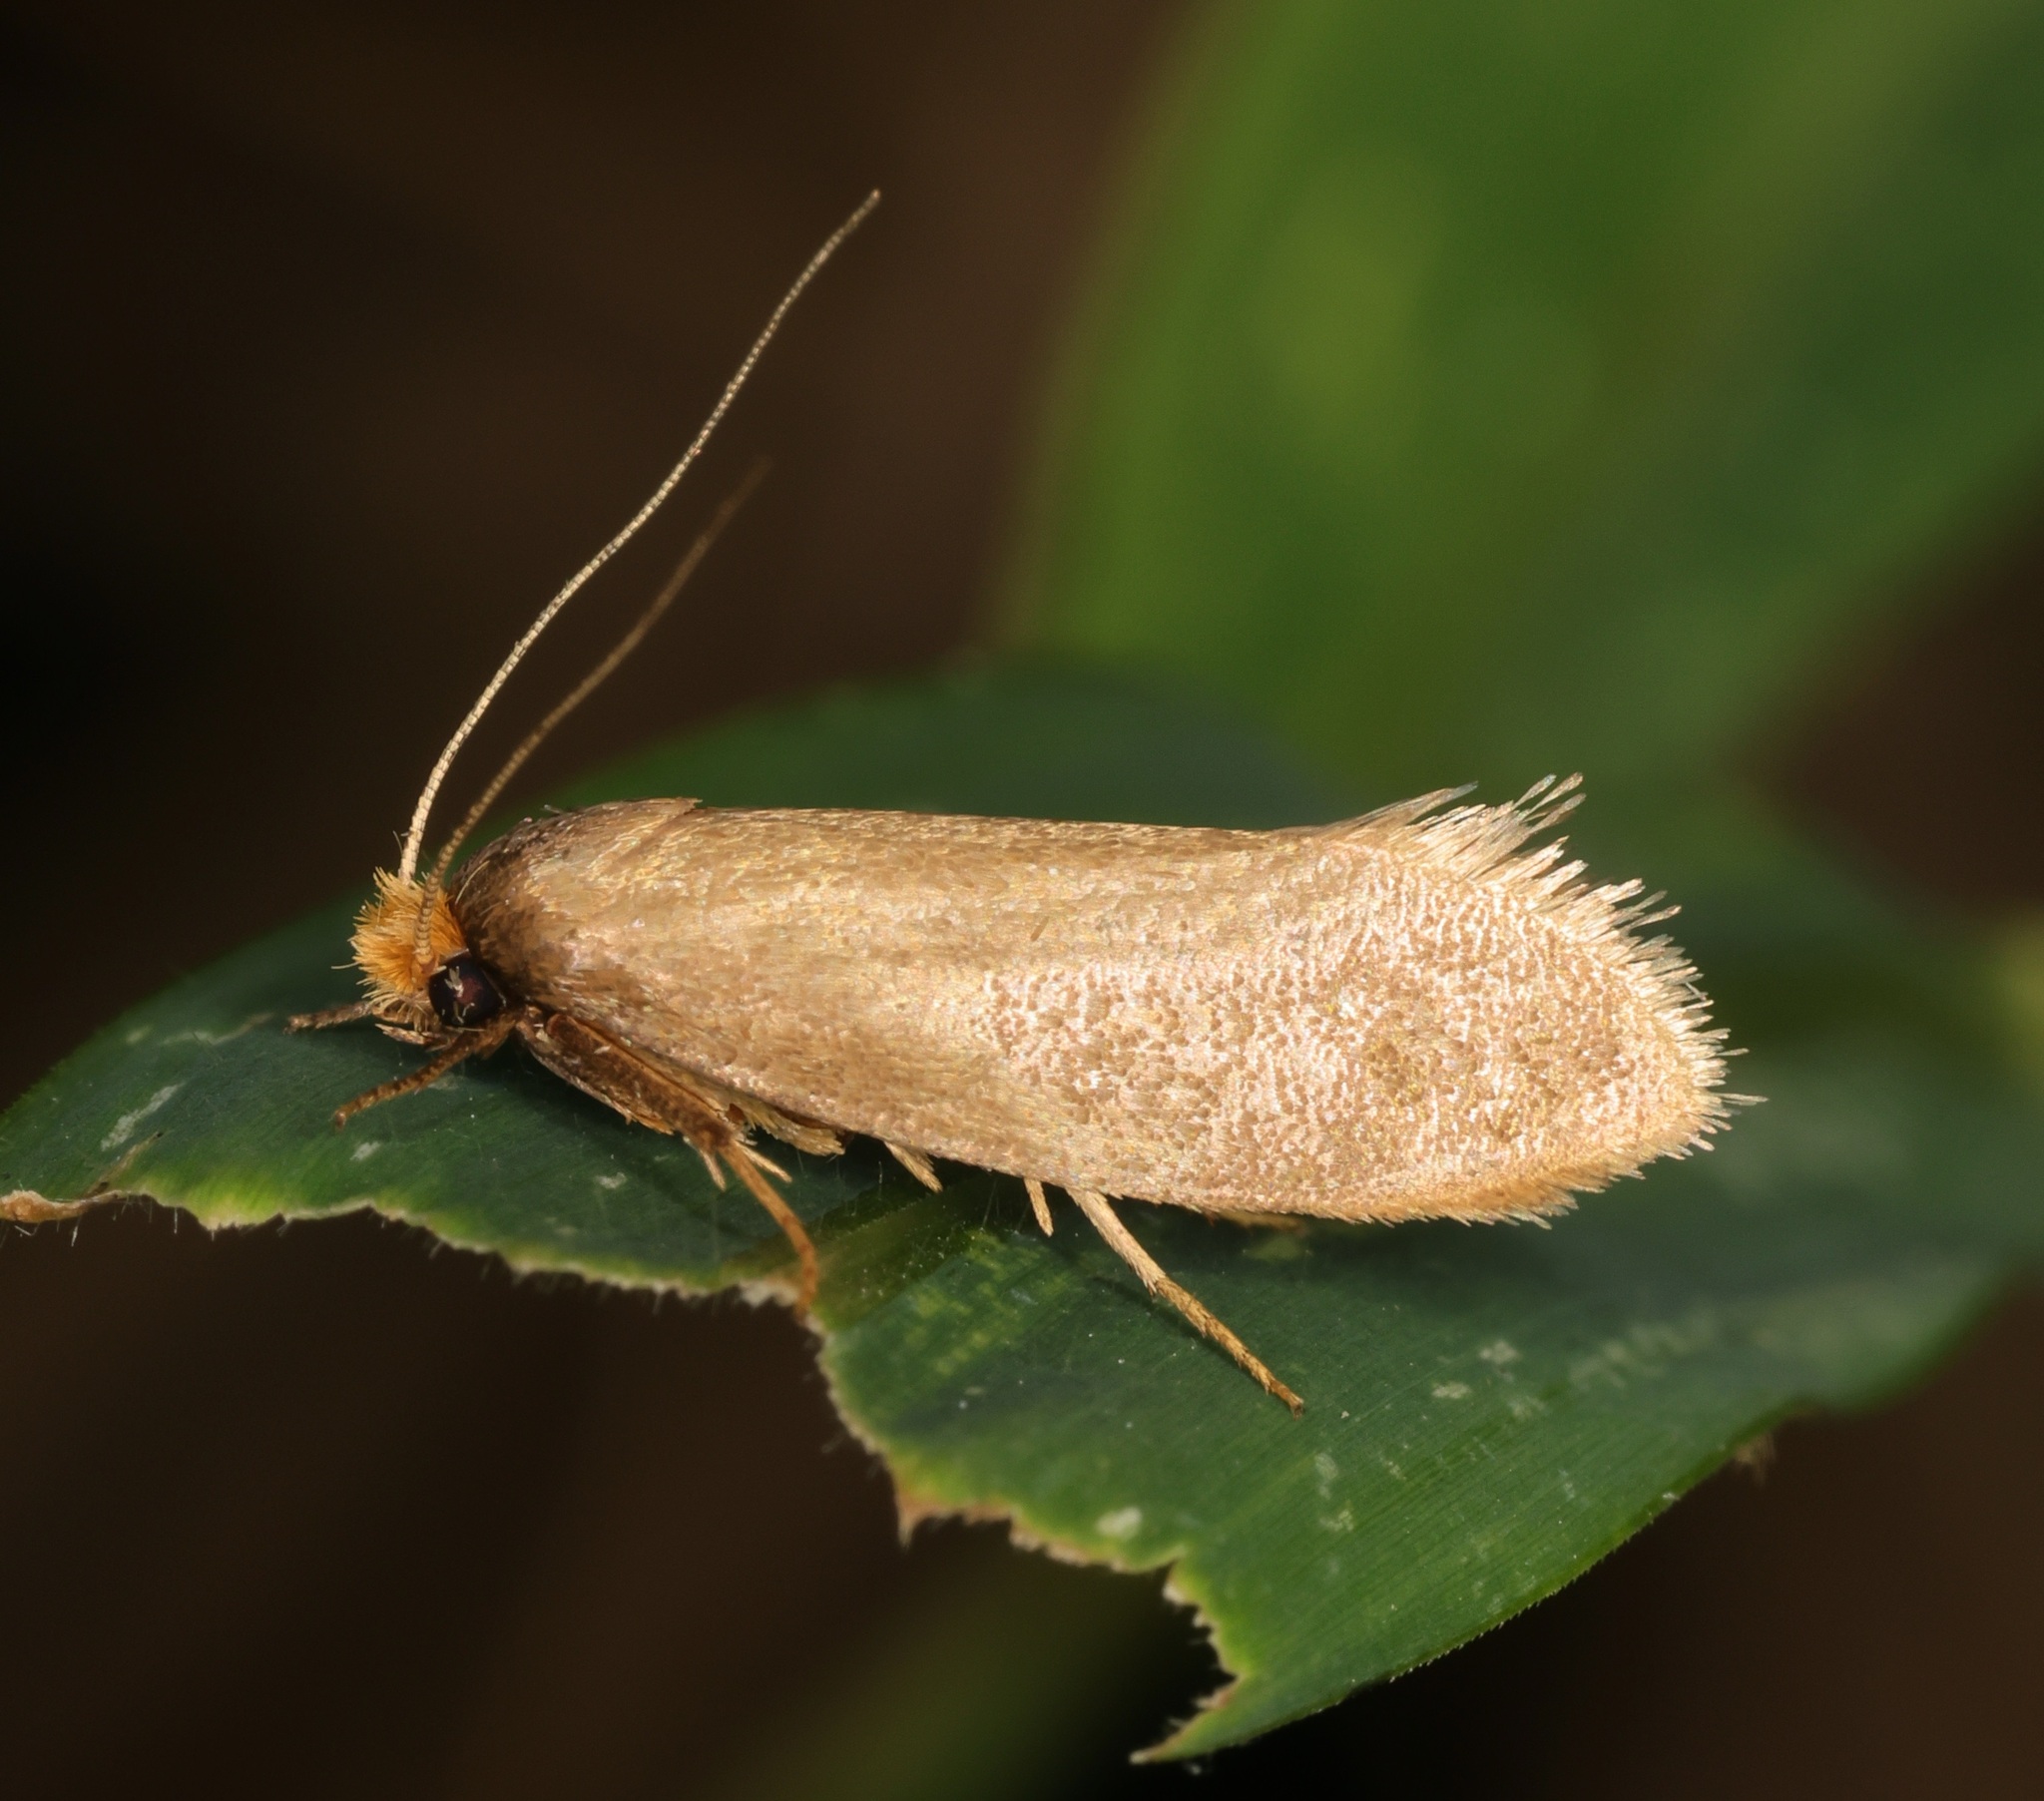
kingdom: Animalia
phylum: Arthropoda
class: Insecta
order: Lepidoptera
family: Tineidae
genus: Edosa
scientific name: Edosa varians
